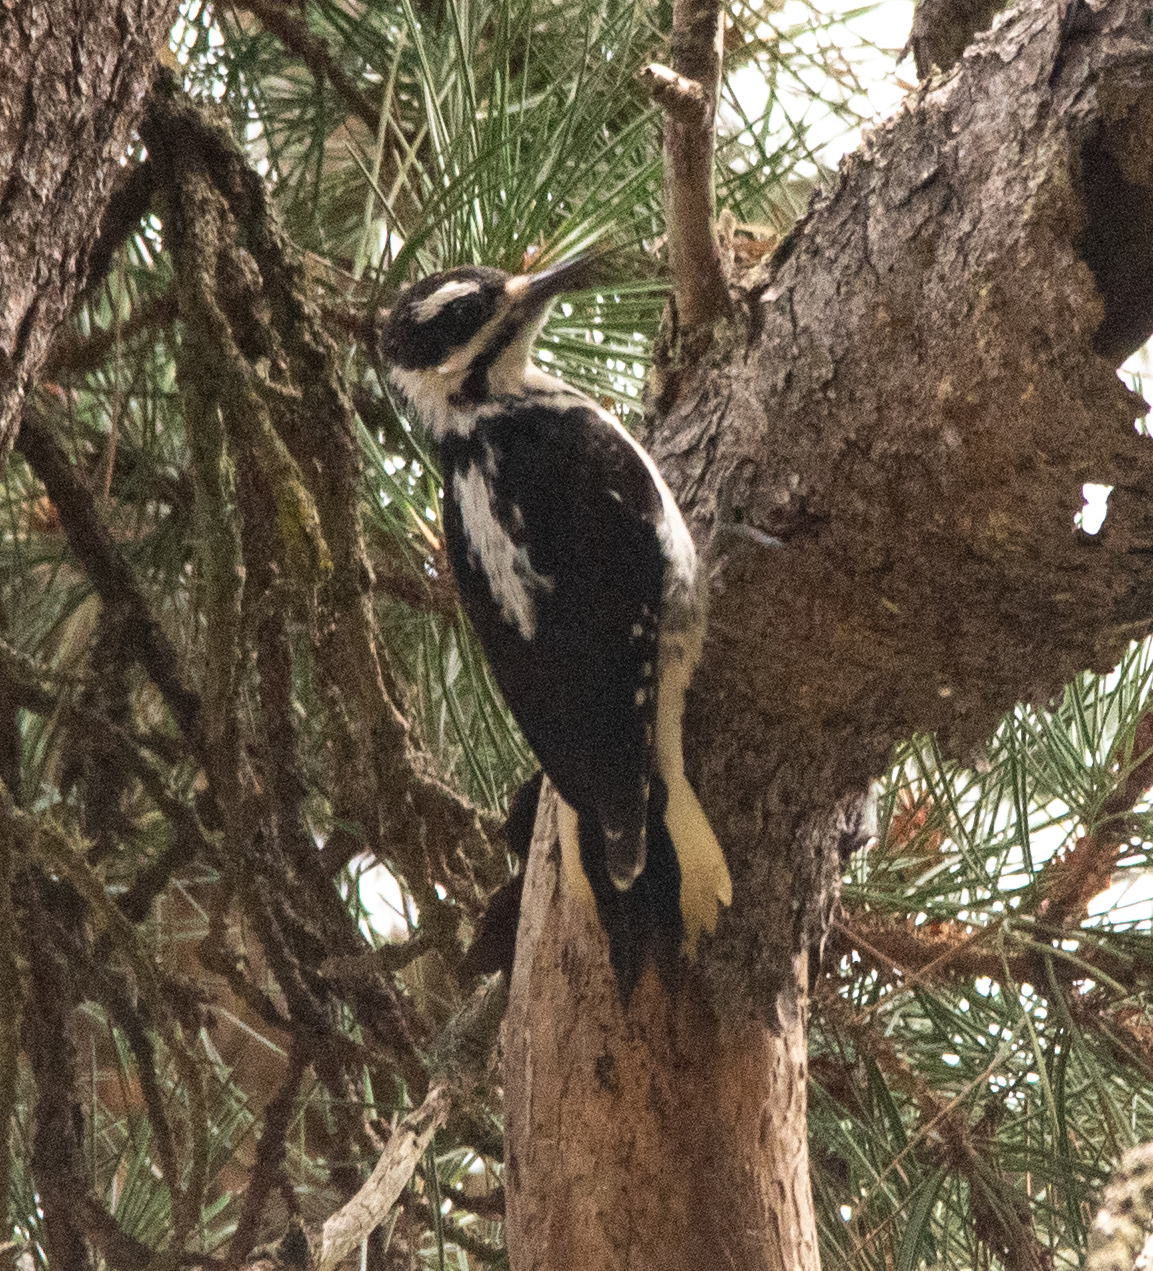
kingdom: Animalia
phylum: Chordata
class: Aves
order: Piciformes
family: Picidae
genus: Leuconotopicus
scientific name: Leuconotopicus villosus
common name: Hairy woodpecker
